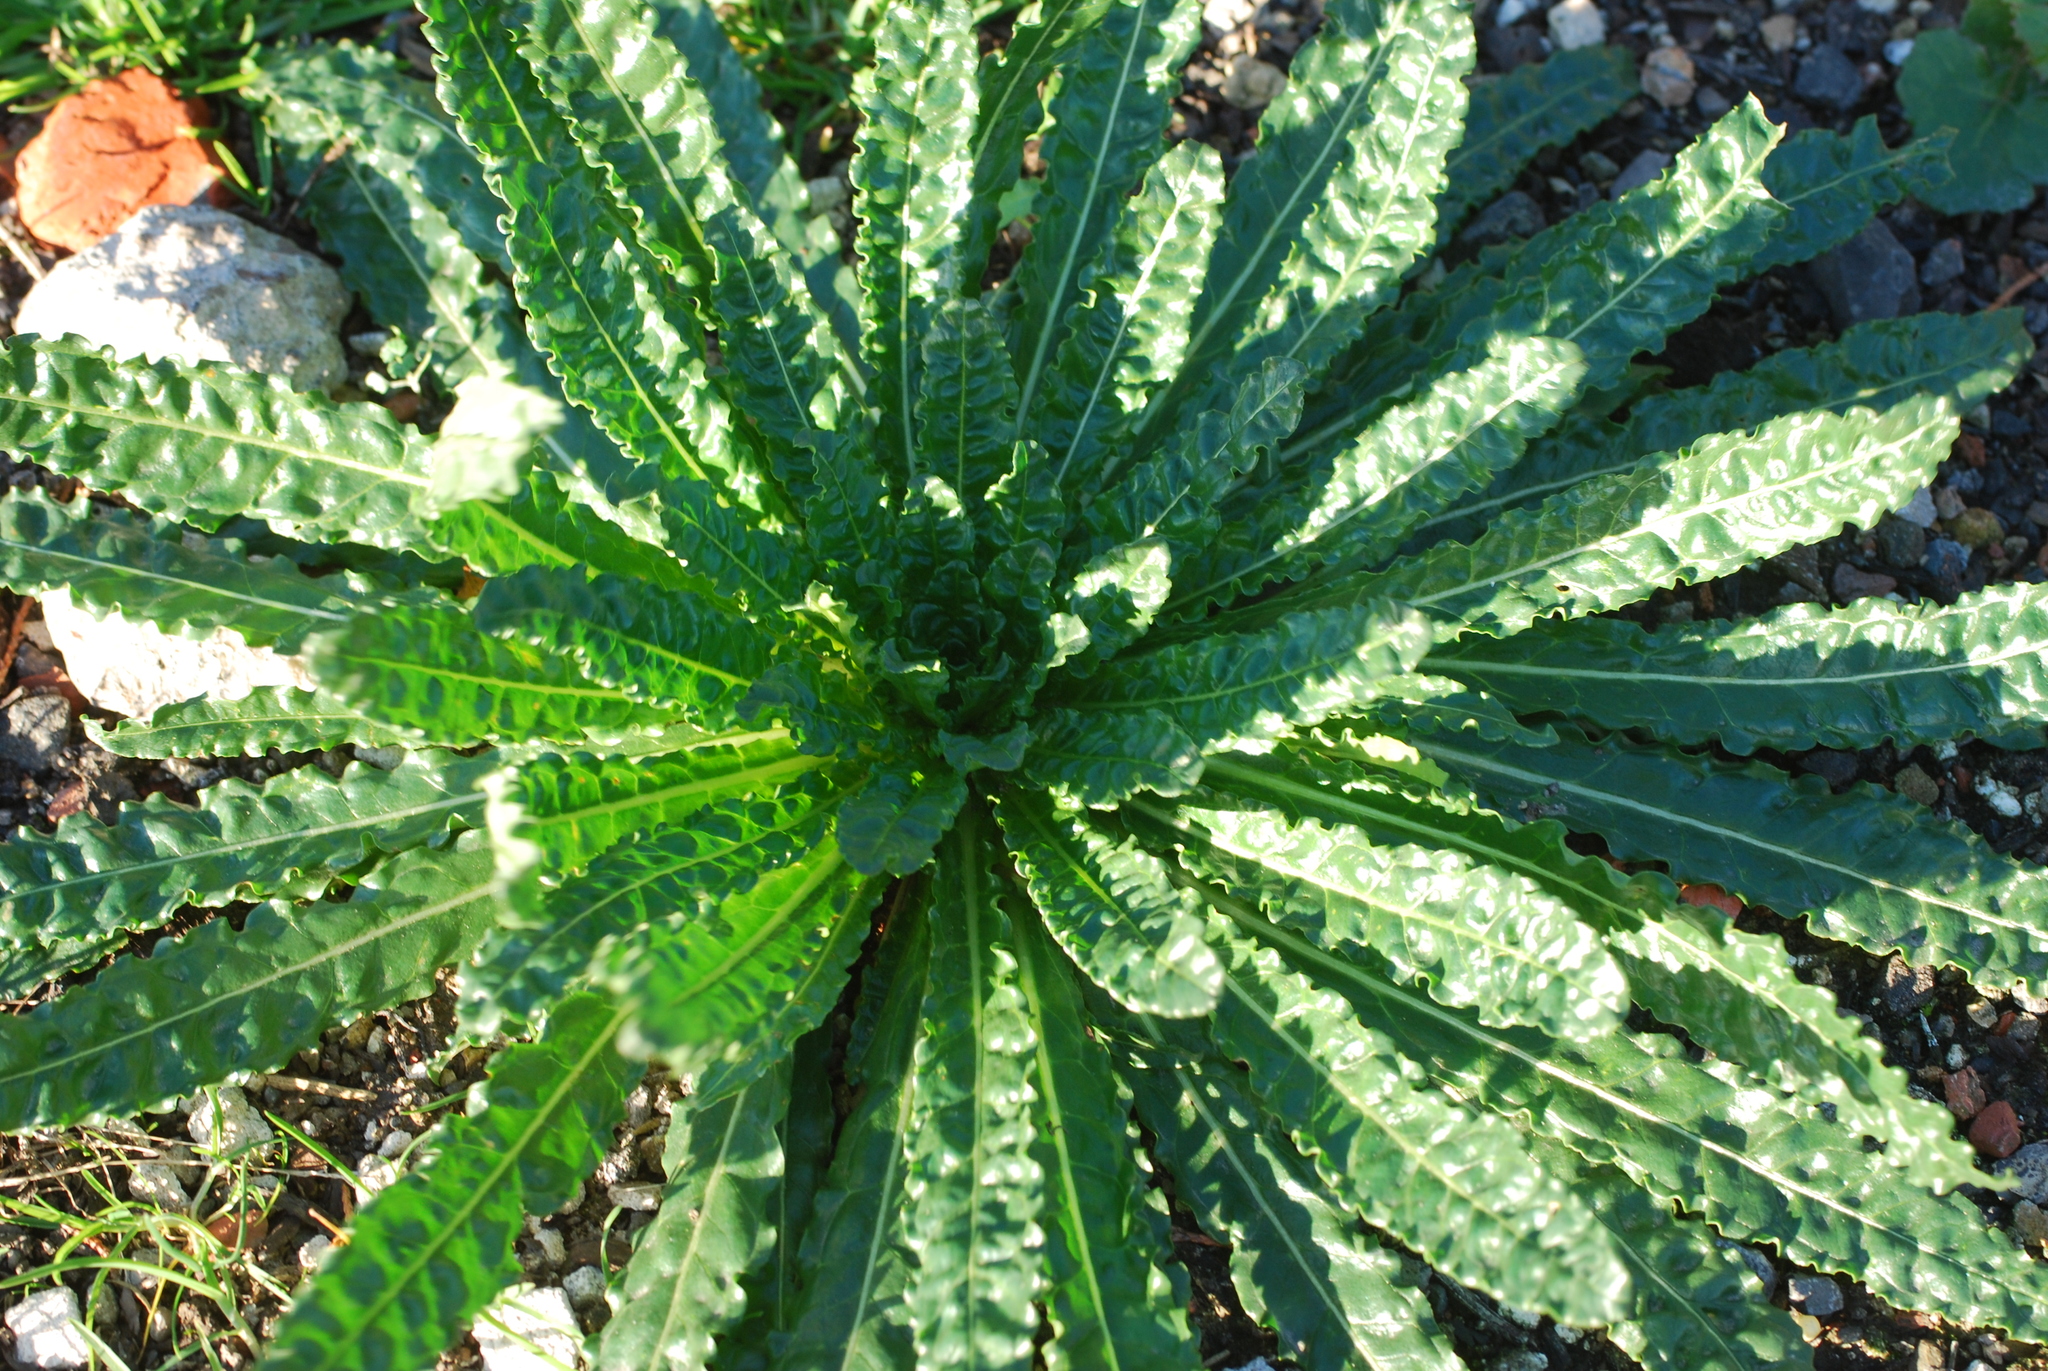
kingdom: Plantae
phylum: Tracheophyta
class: Magnoliopsida
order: Brassicales
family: Resedaceae
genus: Reseda
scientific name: Reseda luteola
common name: Weld
